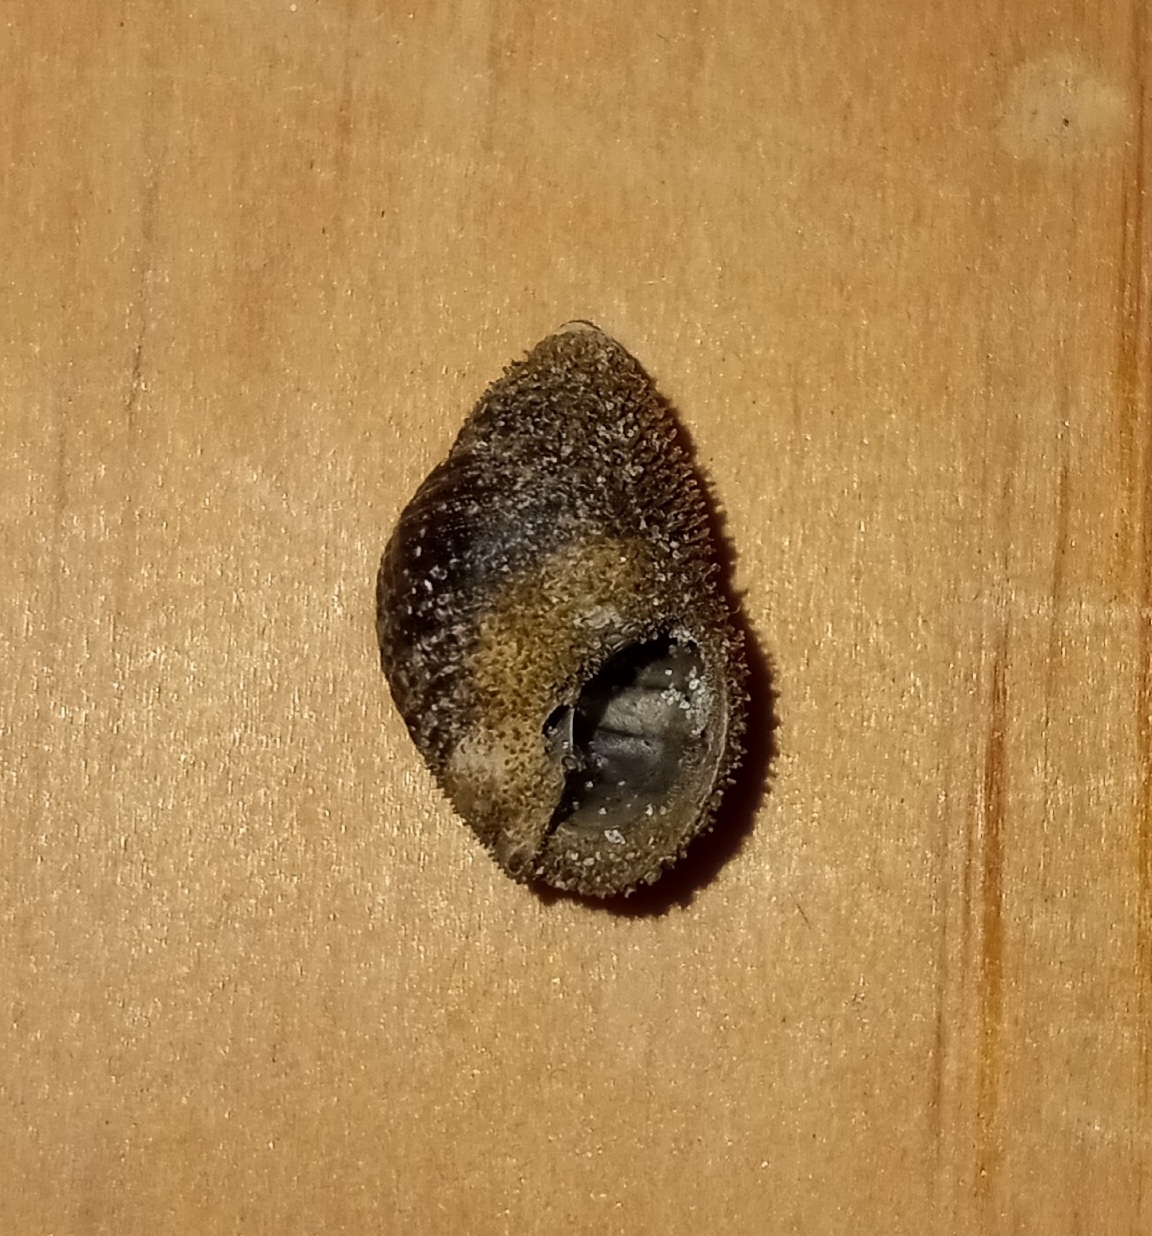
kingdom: Animalia
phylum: Mollusca
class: Gastropoda
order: Neogastropoda
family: Nassariidae
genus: Ilyanassa
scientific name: Ilyanassa obsoleta
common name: Eastern mudsnail
